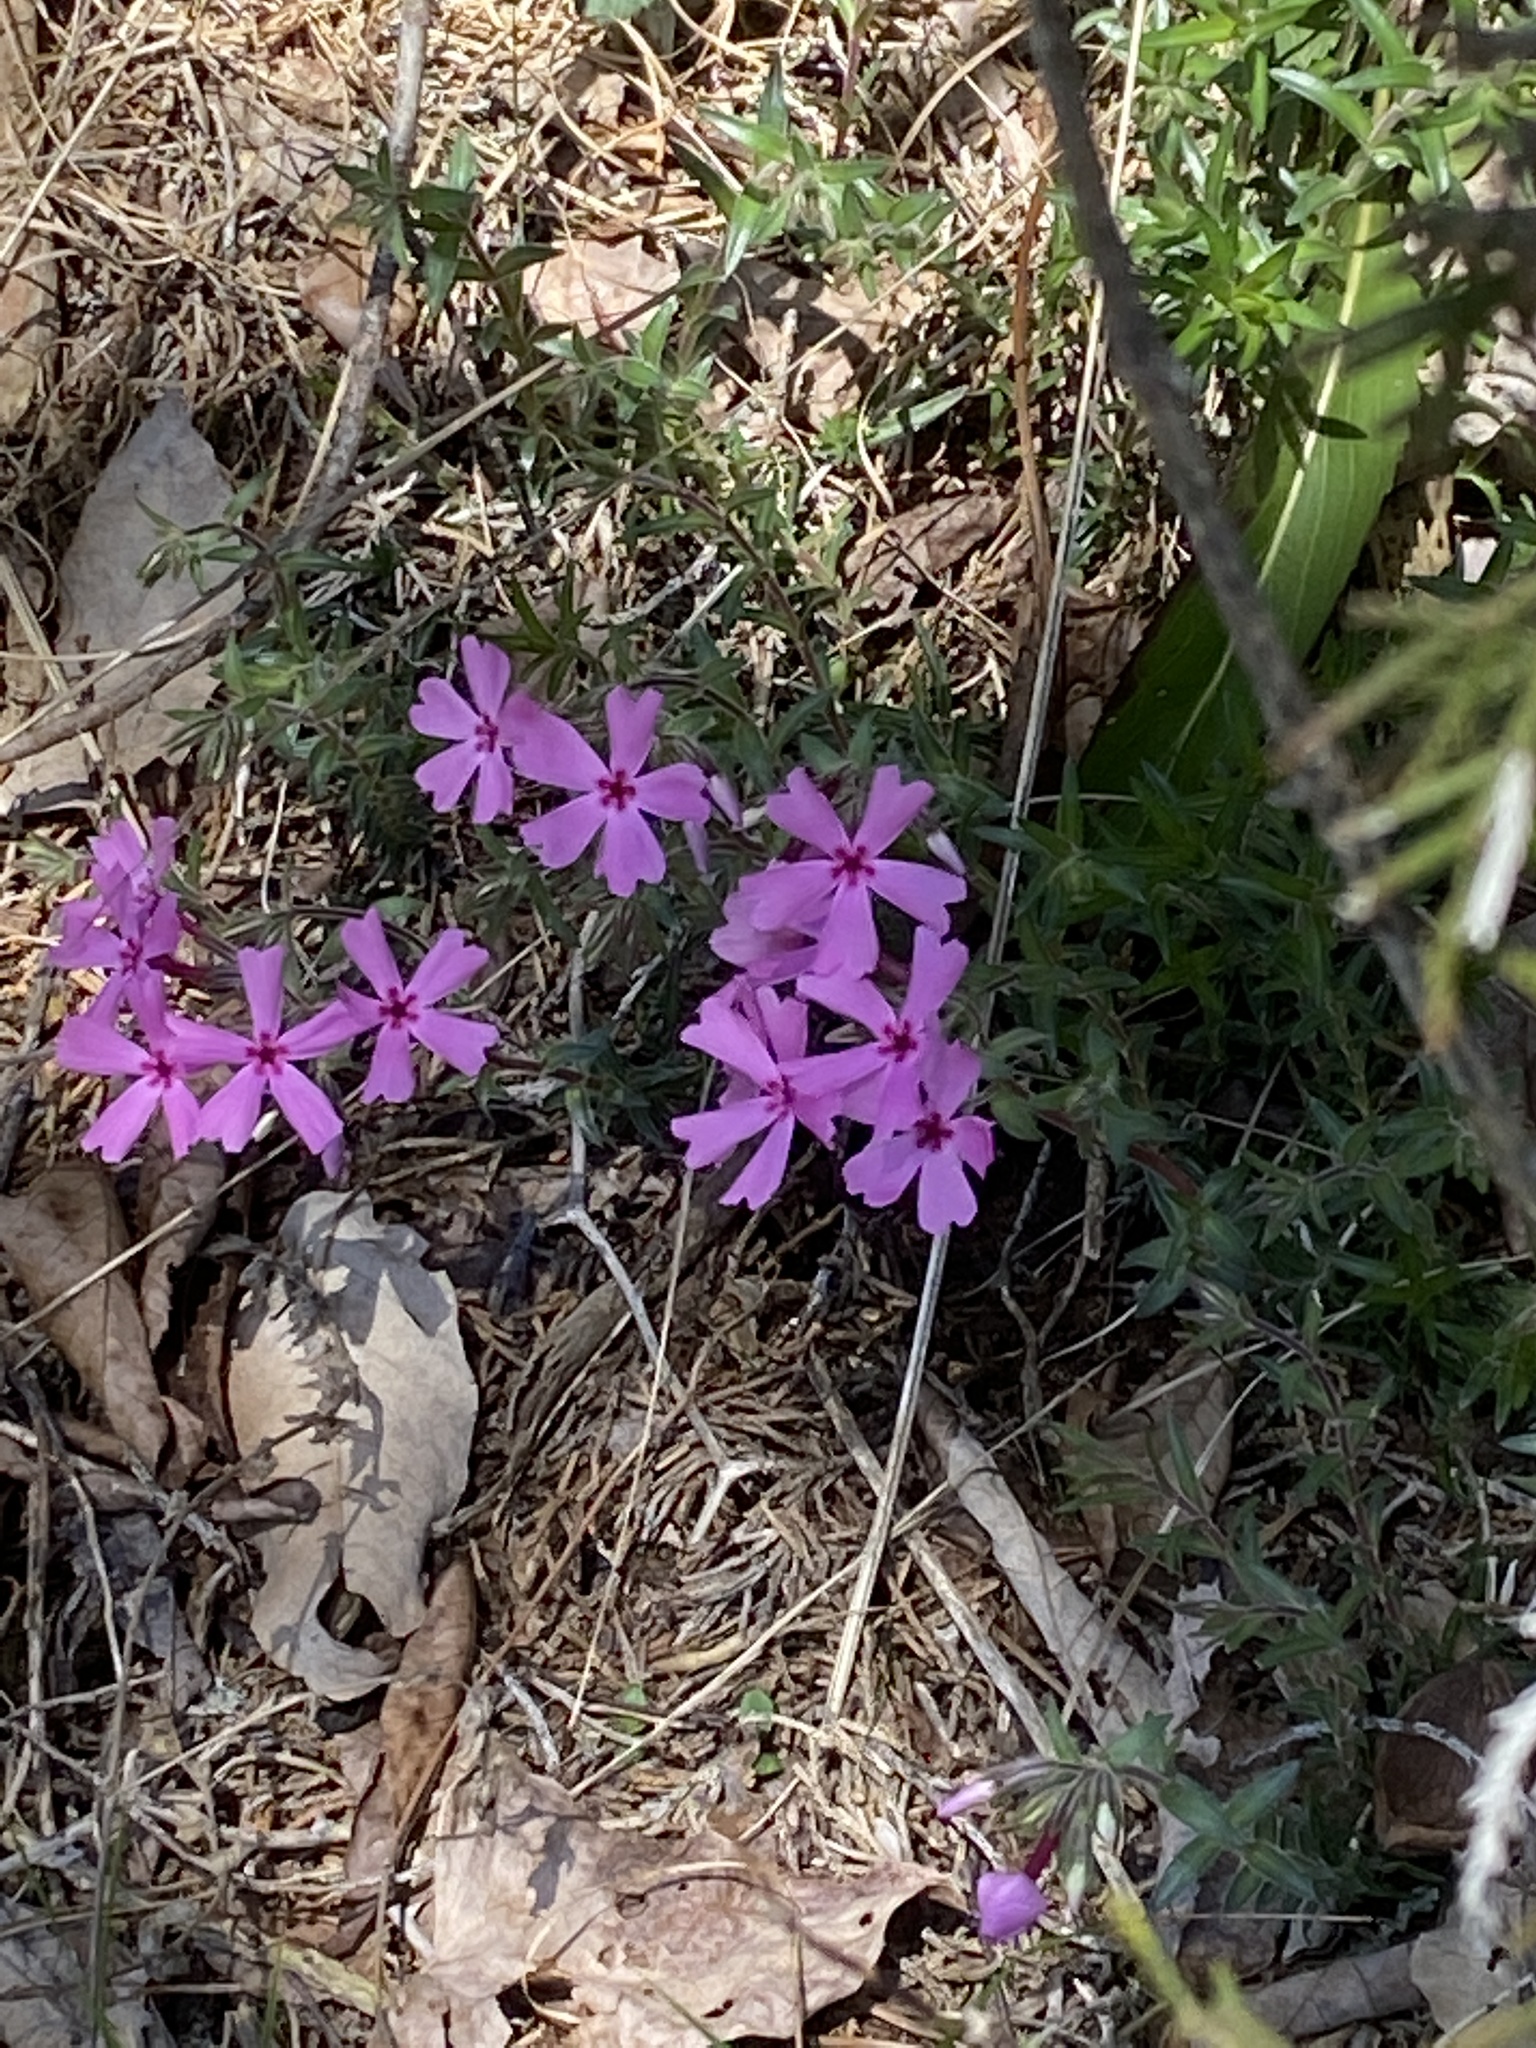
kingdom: Plantae
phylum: Tracheophyta
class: Magnoliopsida
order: Ericales
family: Polemoniaceae
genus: Phlox
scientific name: Phlox nivalis
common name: Trailing phlox
